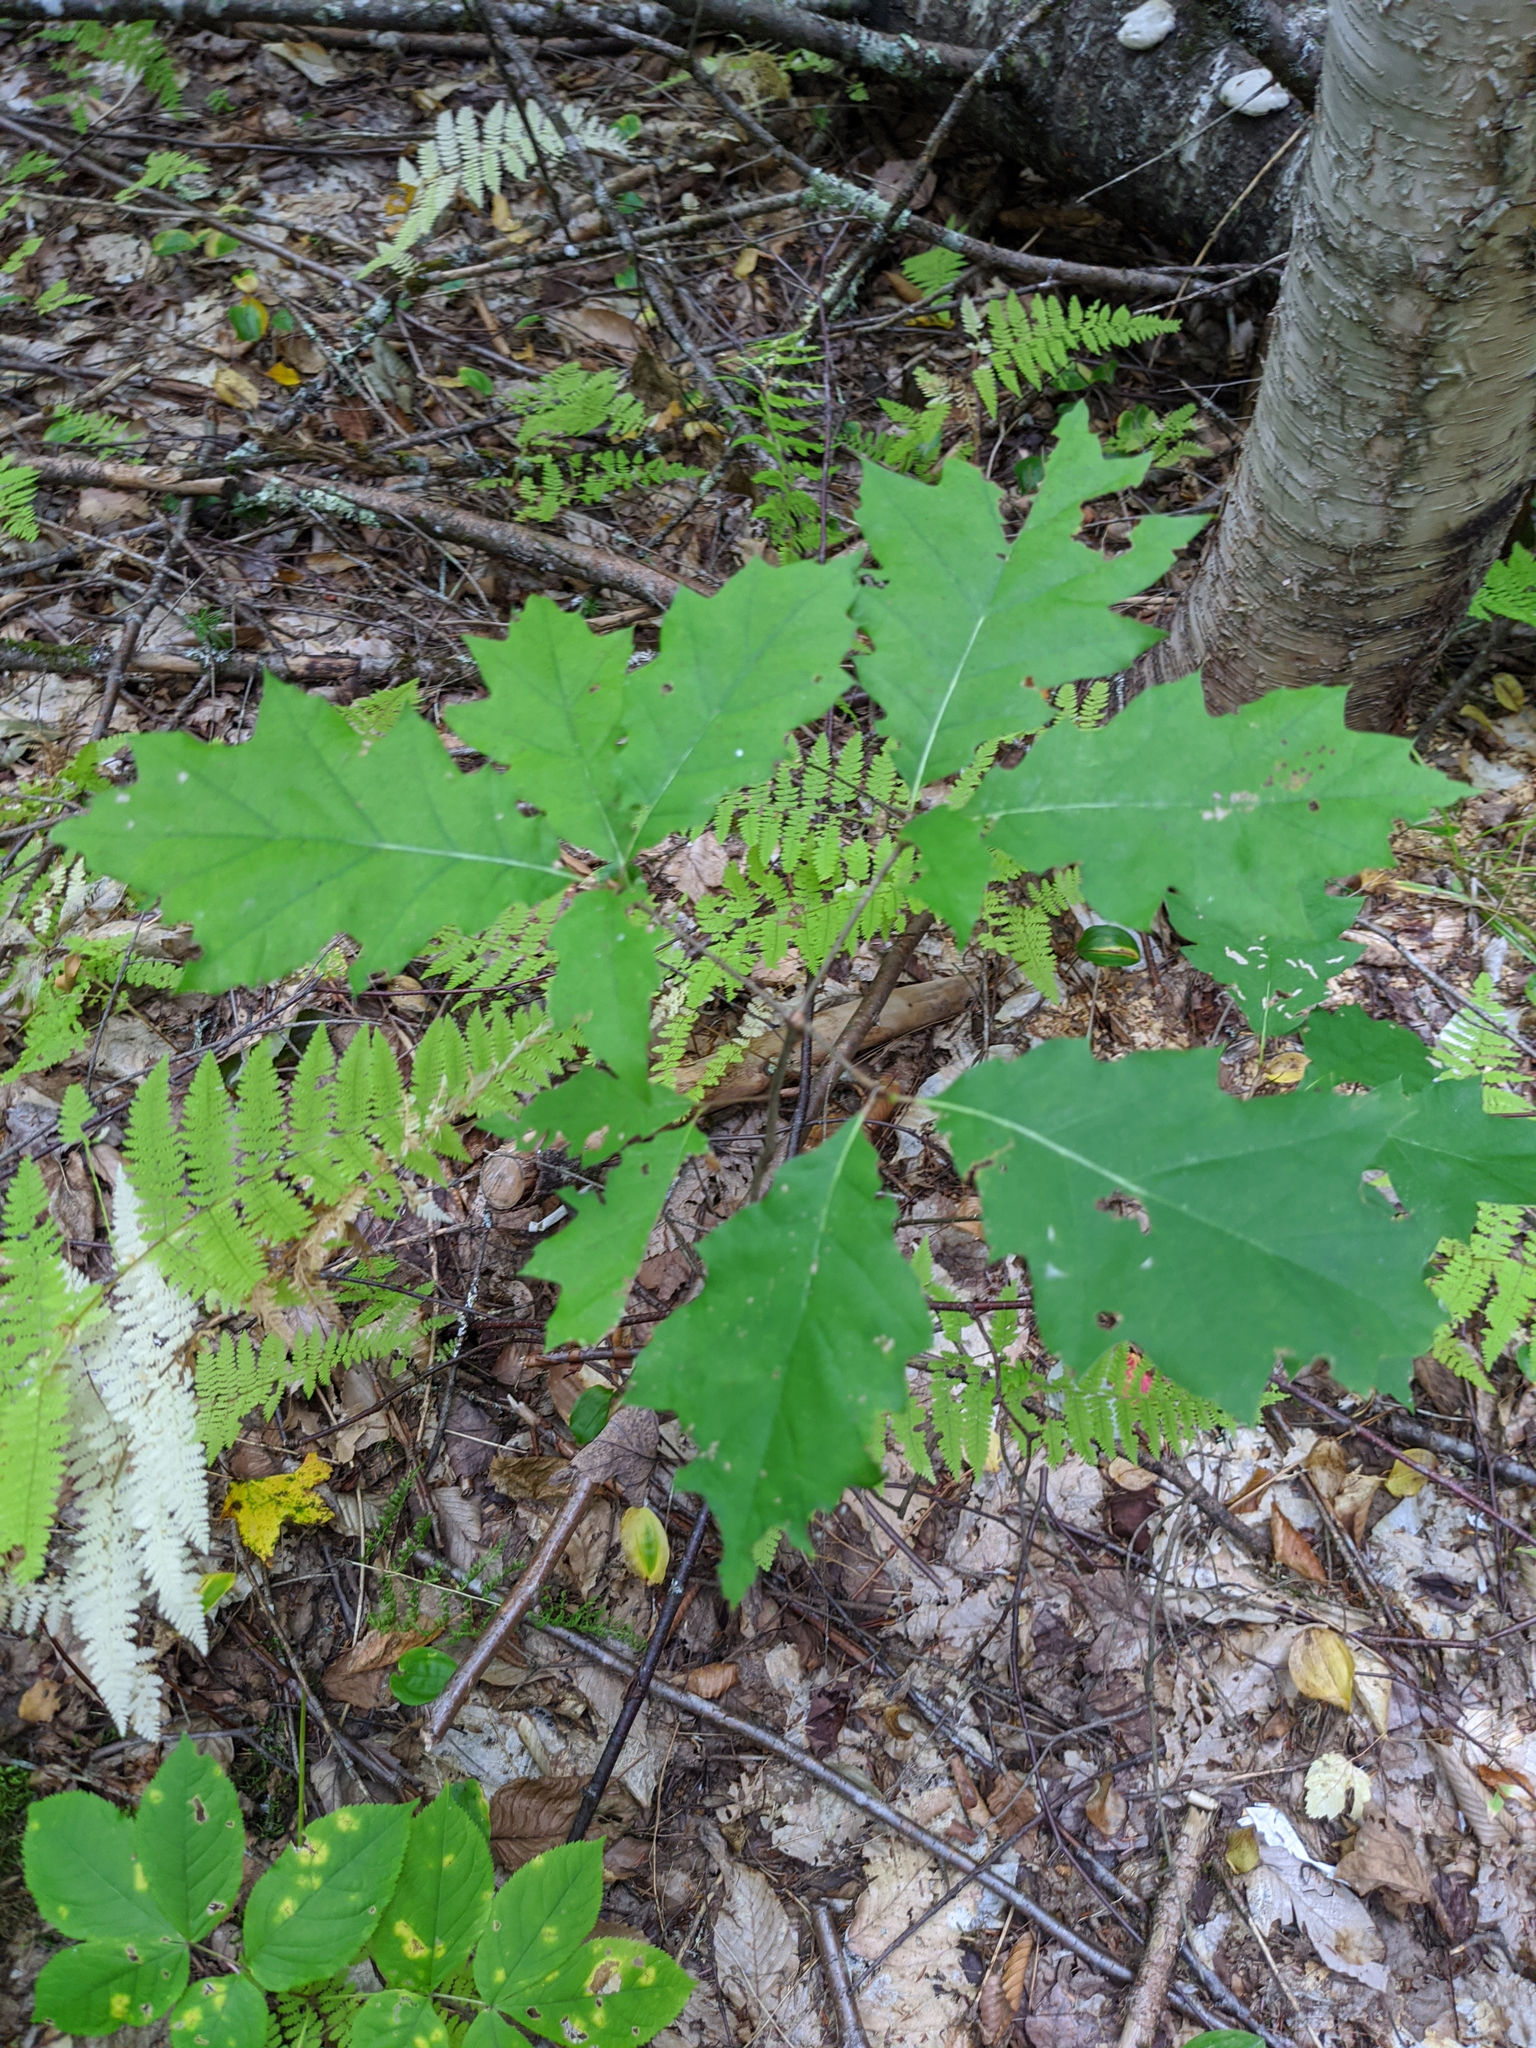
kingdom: Plantae
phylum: Tracheophyta
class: Magnoliopsida
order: Fagales
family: Fagaceae
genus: Quercus
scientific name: Quercus rubra
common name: Red oak
